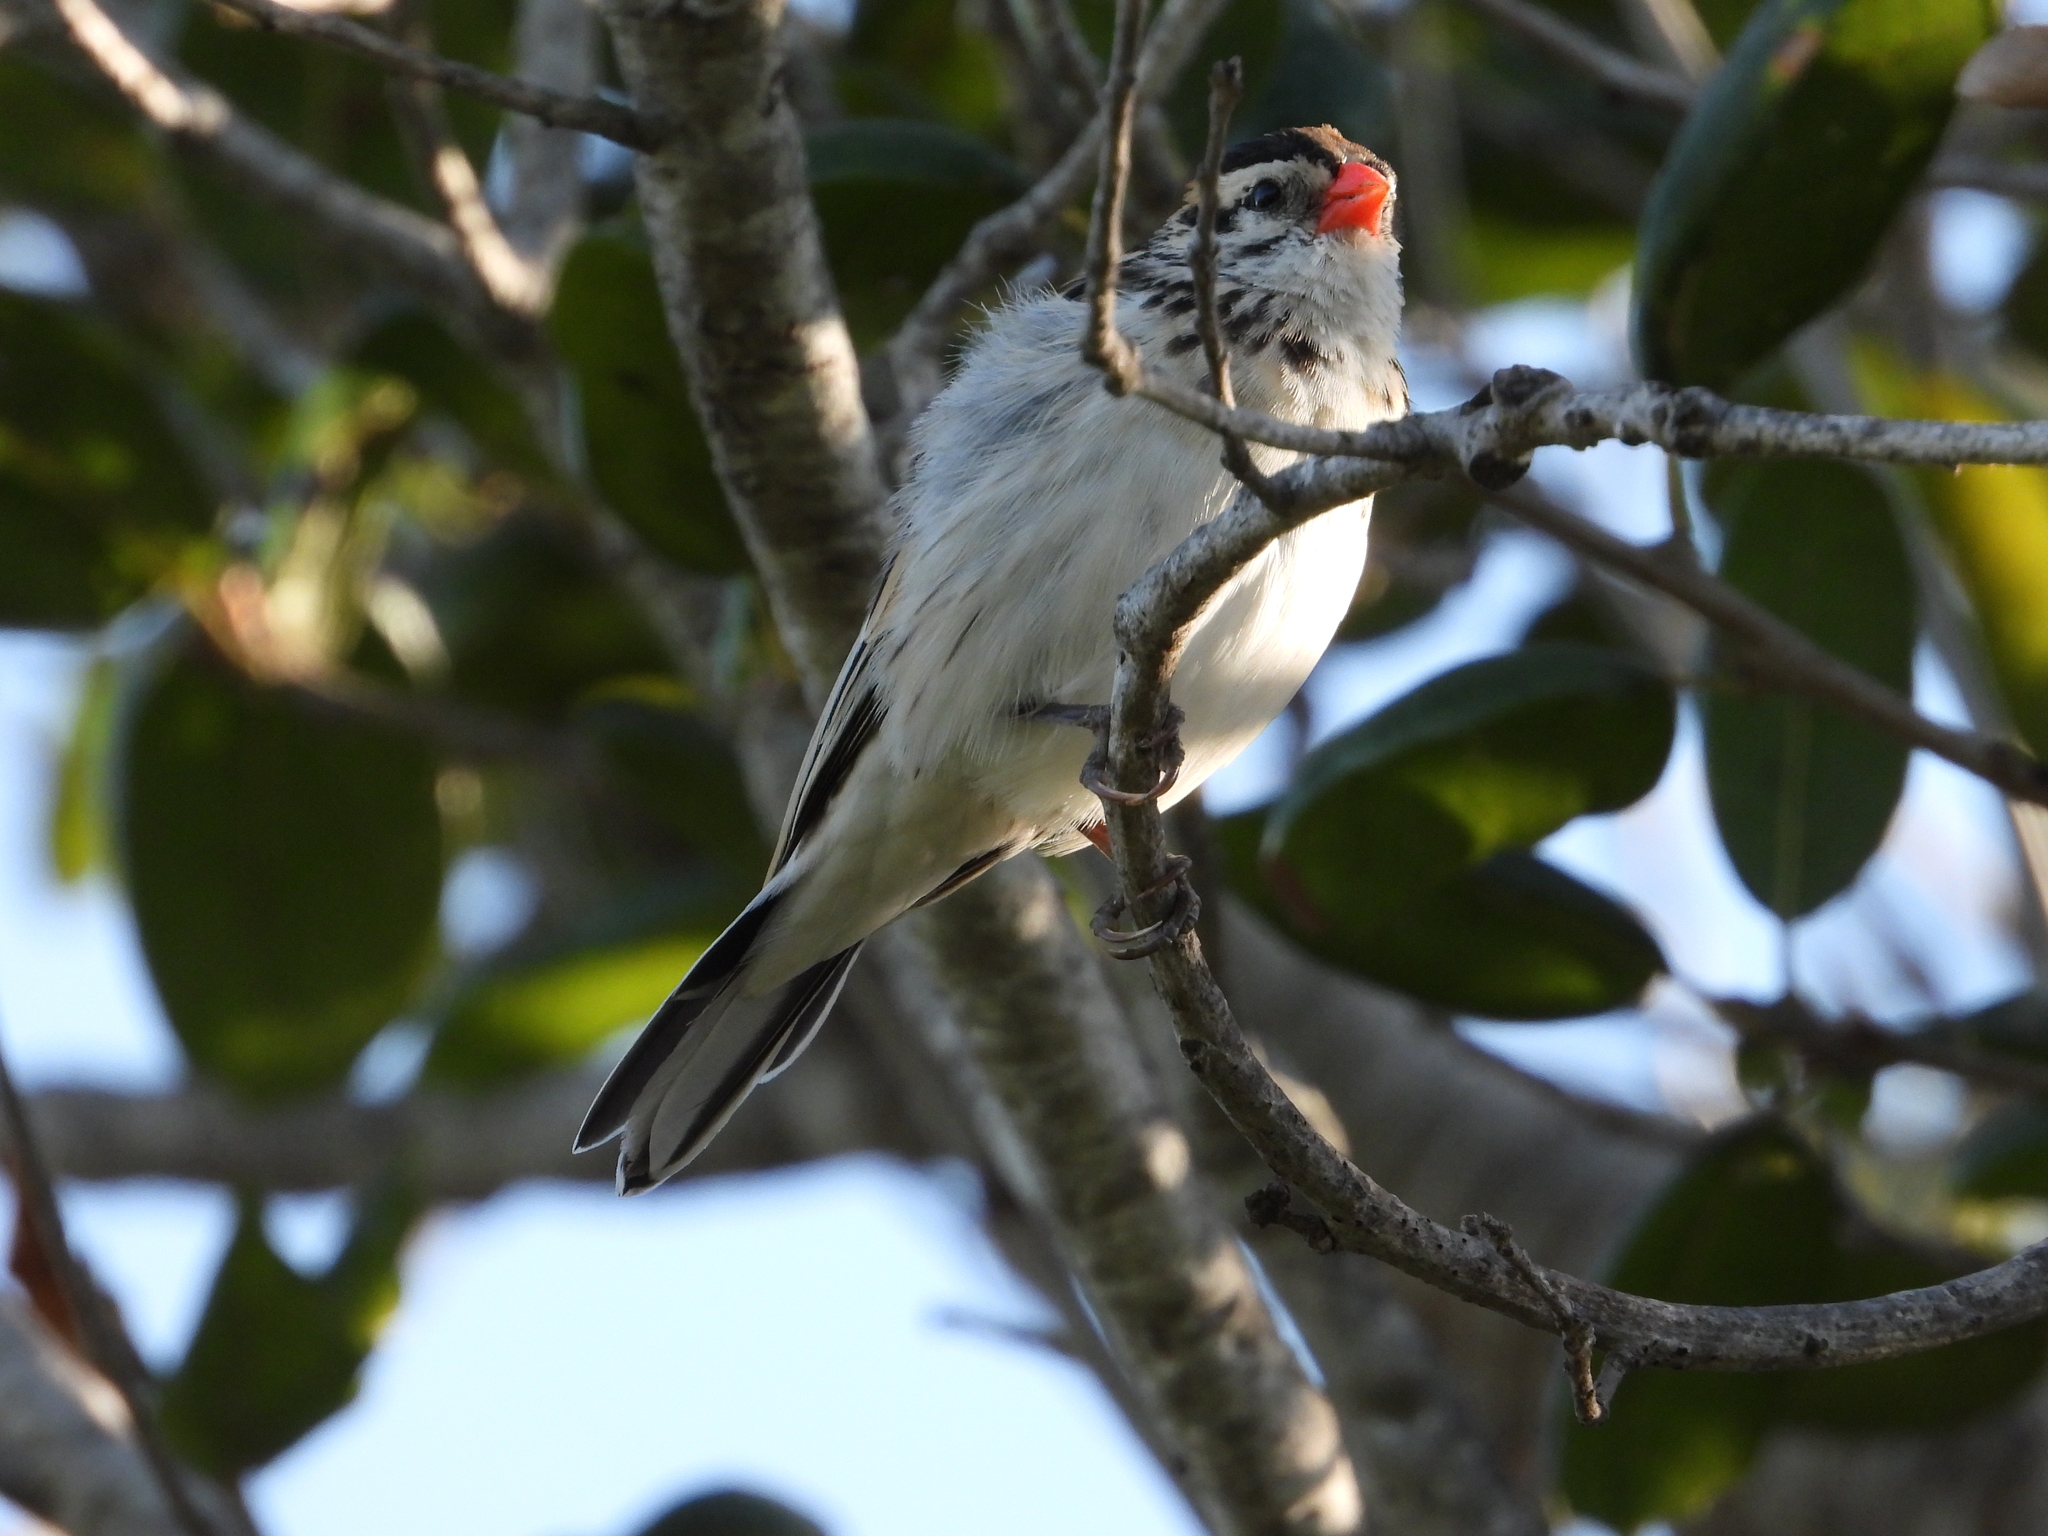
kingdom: Animalia
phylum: Chordata
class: Aves
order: Passeriformes
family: Viduidae
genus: Vidua
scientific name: Vidua macroura
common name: Pin-tailed whydah
